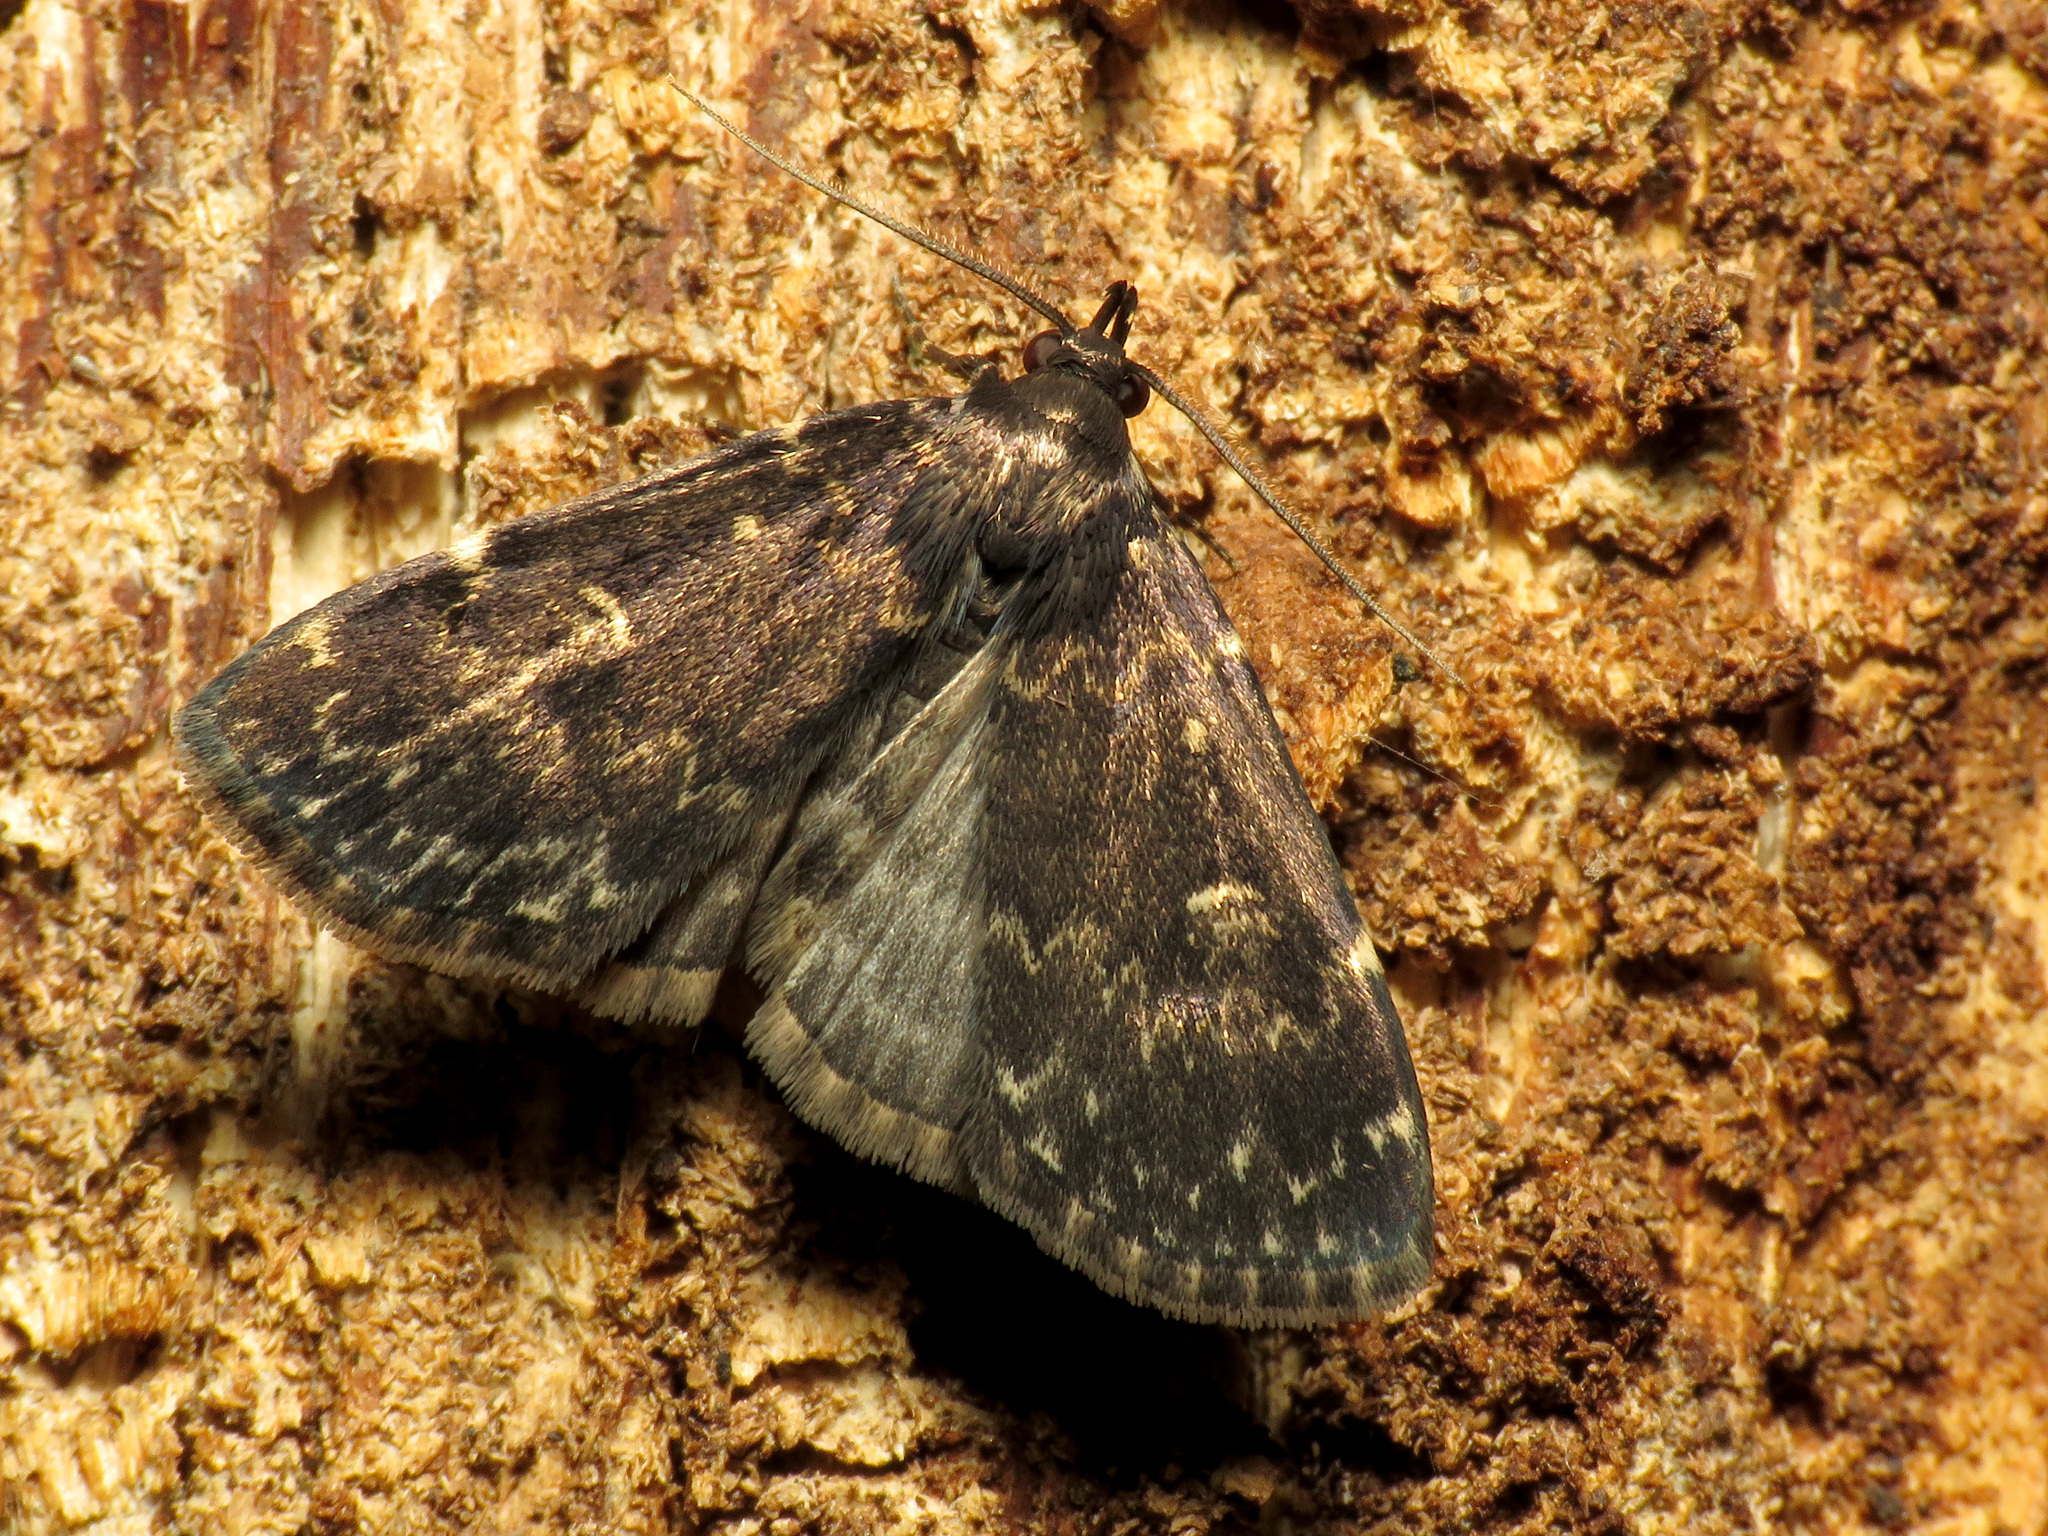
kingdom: Animalia
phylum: Arthropoda
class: Insecta
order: Lepidoptera
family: Erebidae
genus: Idia
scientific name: Idia lubricalis
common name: Twin-striped tabby
